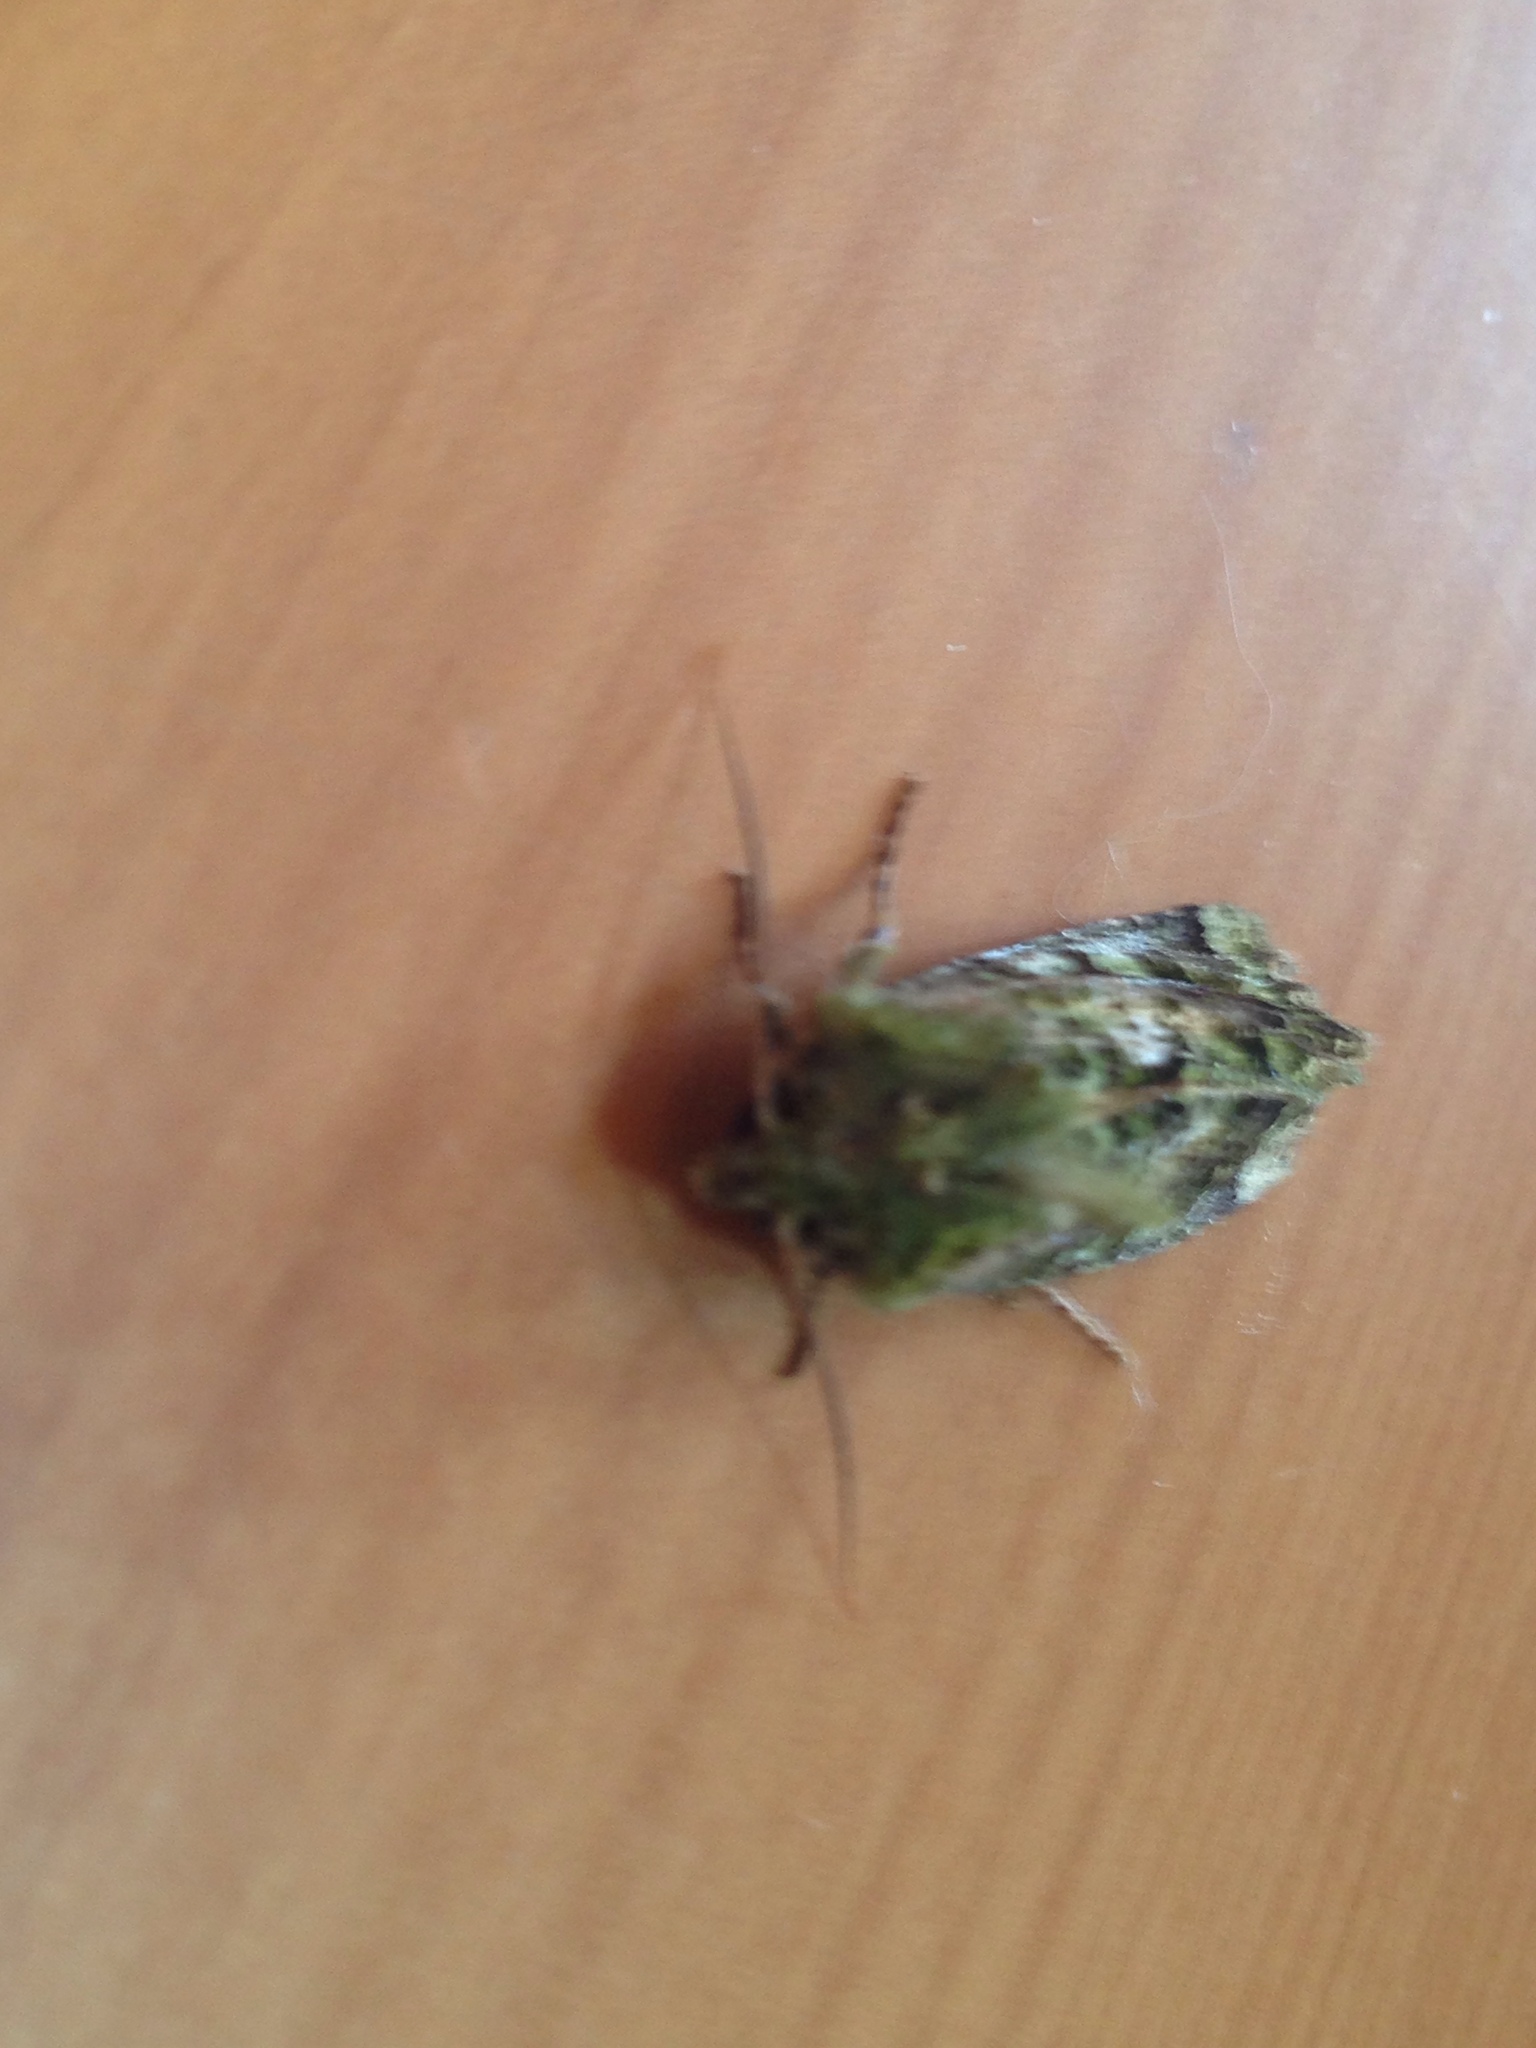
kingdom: Animalia
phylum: Arthropoda
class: Insecta
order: Lepidoptera
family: Noctuidae
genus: Feredayia
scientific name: Feredayia grammosa
